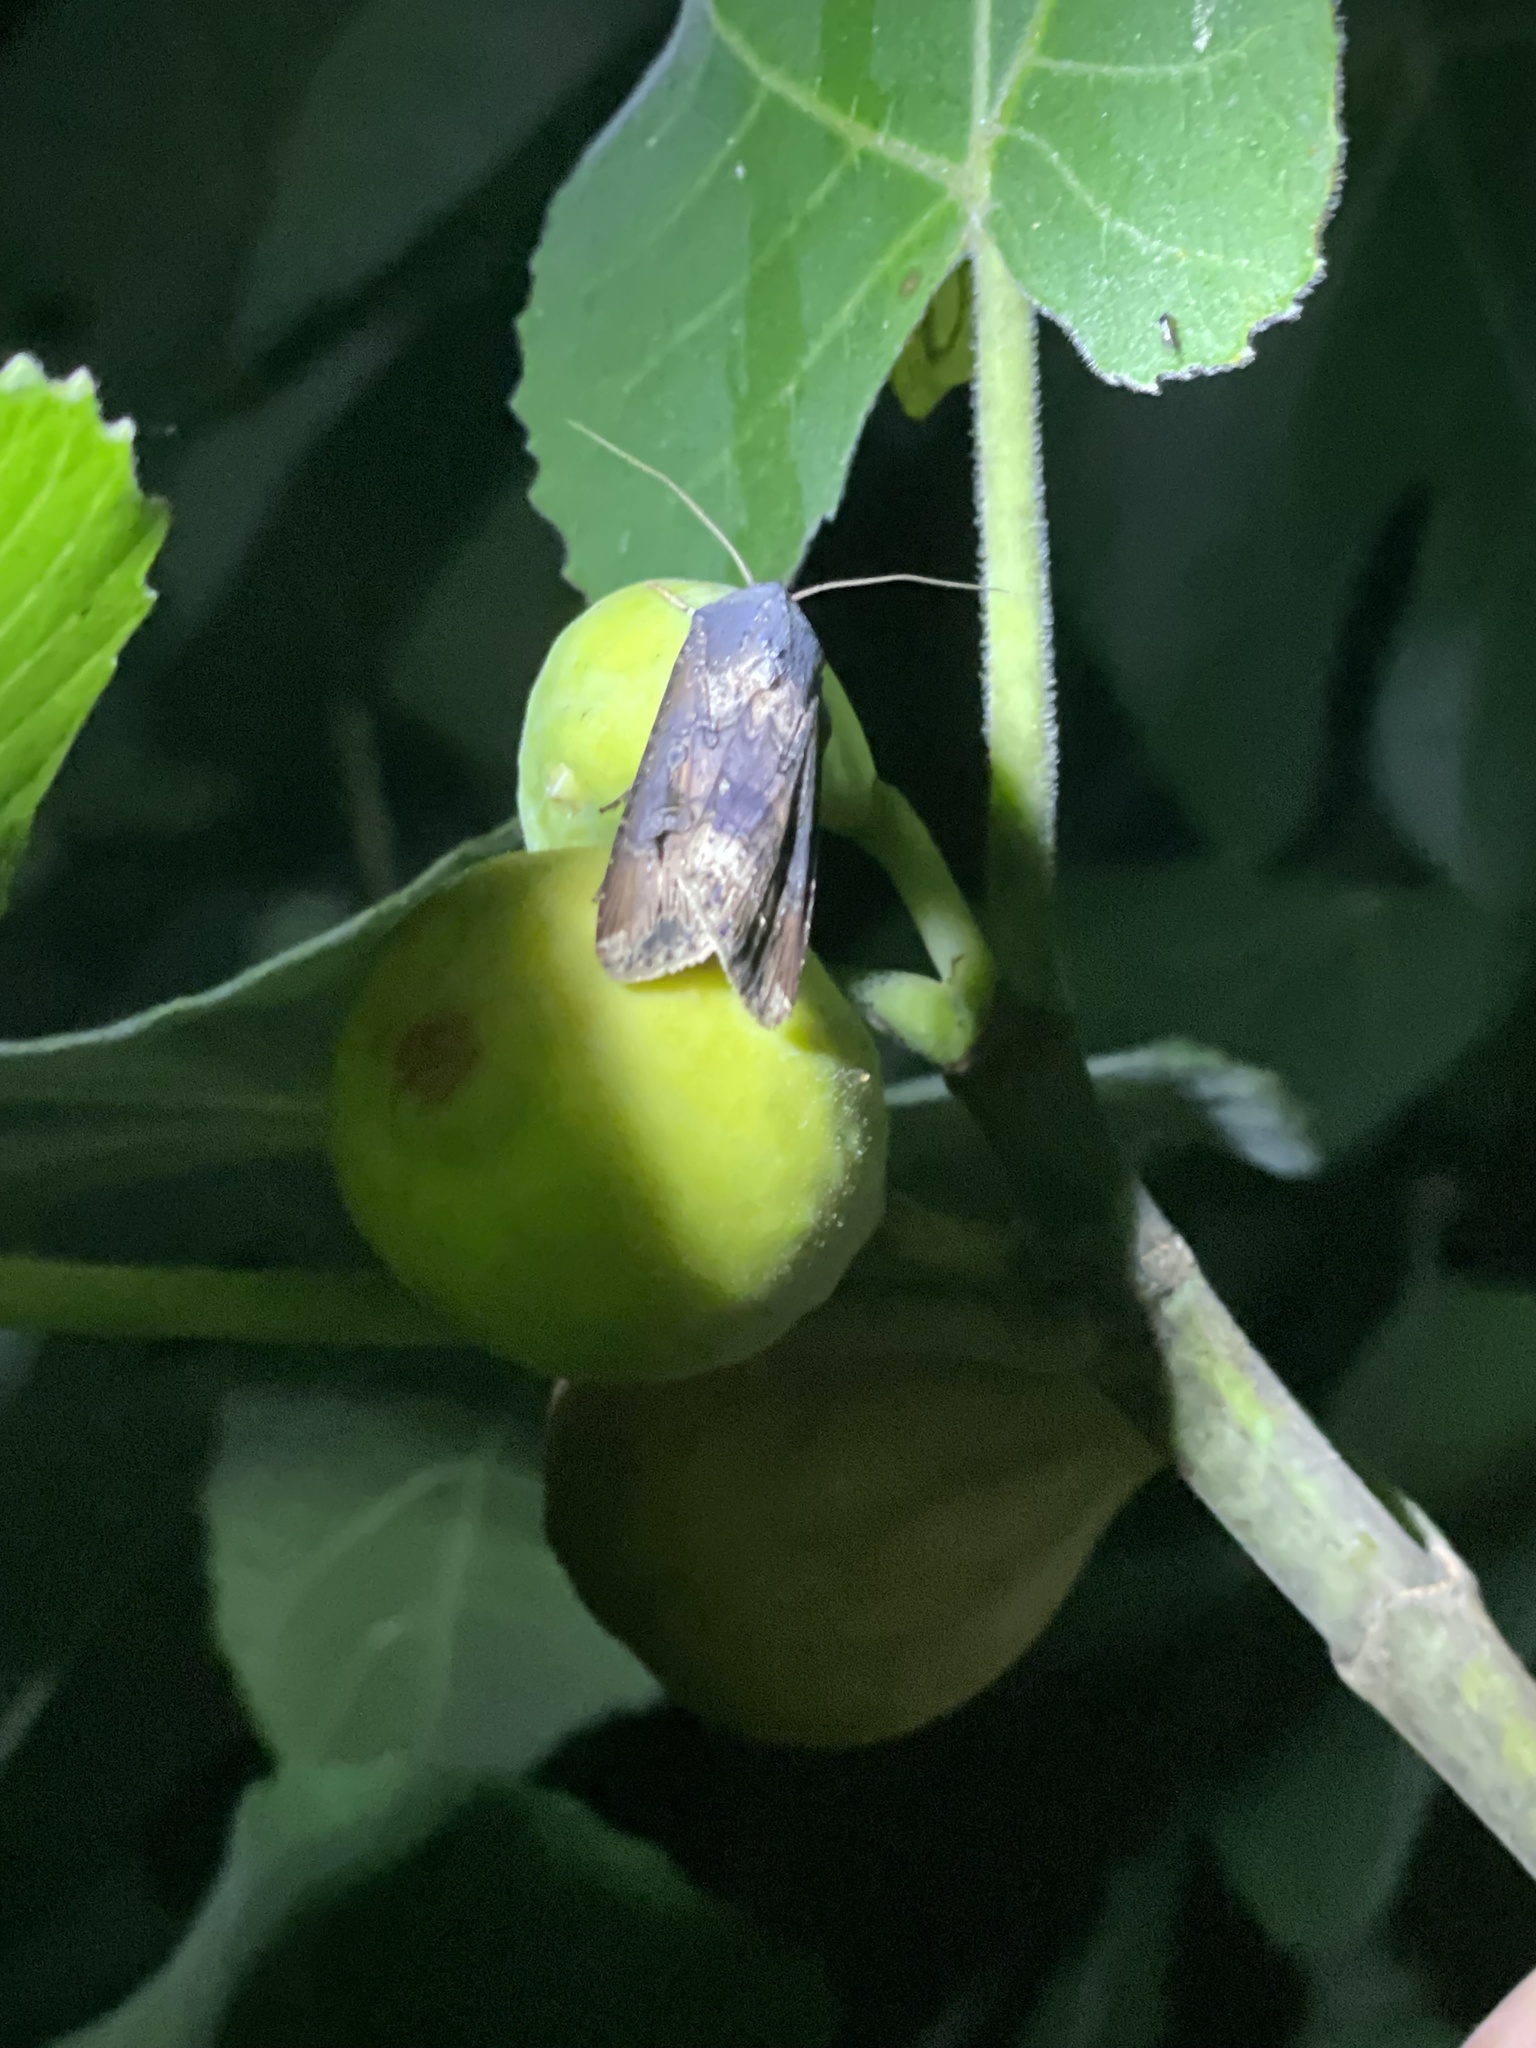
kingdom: Animalia
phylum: Arthropoda
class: Insecta
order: Lepidoptera
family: Noctuidae
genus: Agrotis
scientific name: Agrotis ipsilon
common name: Dark sword-grass
